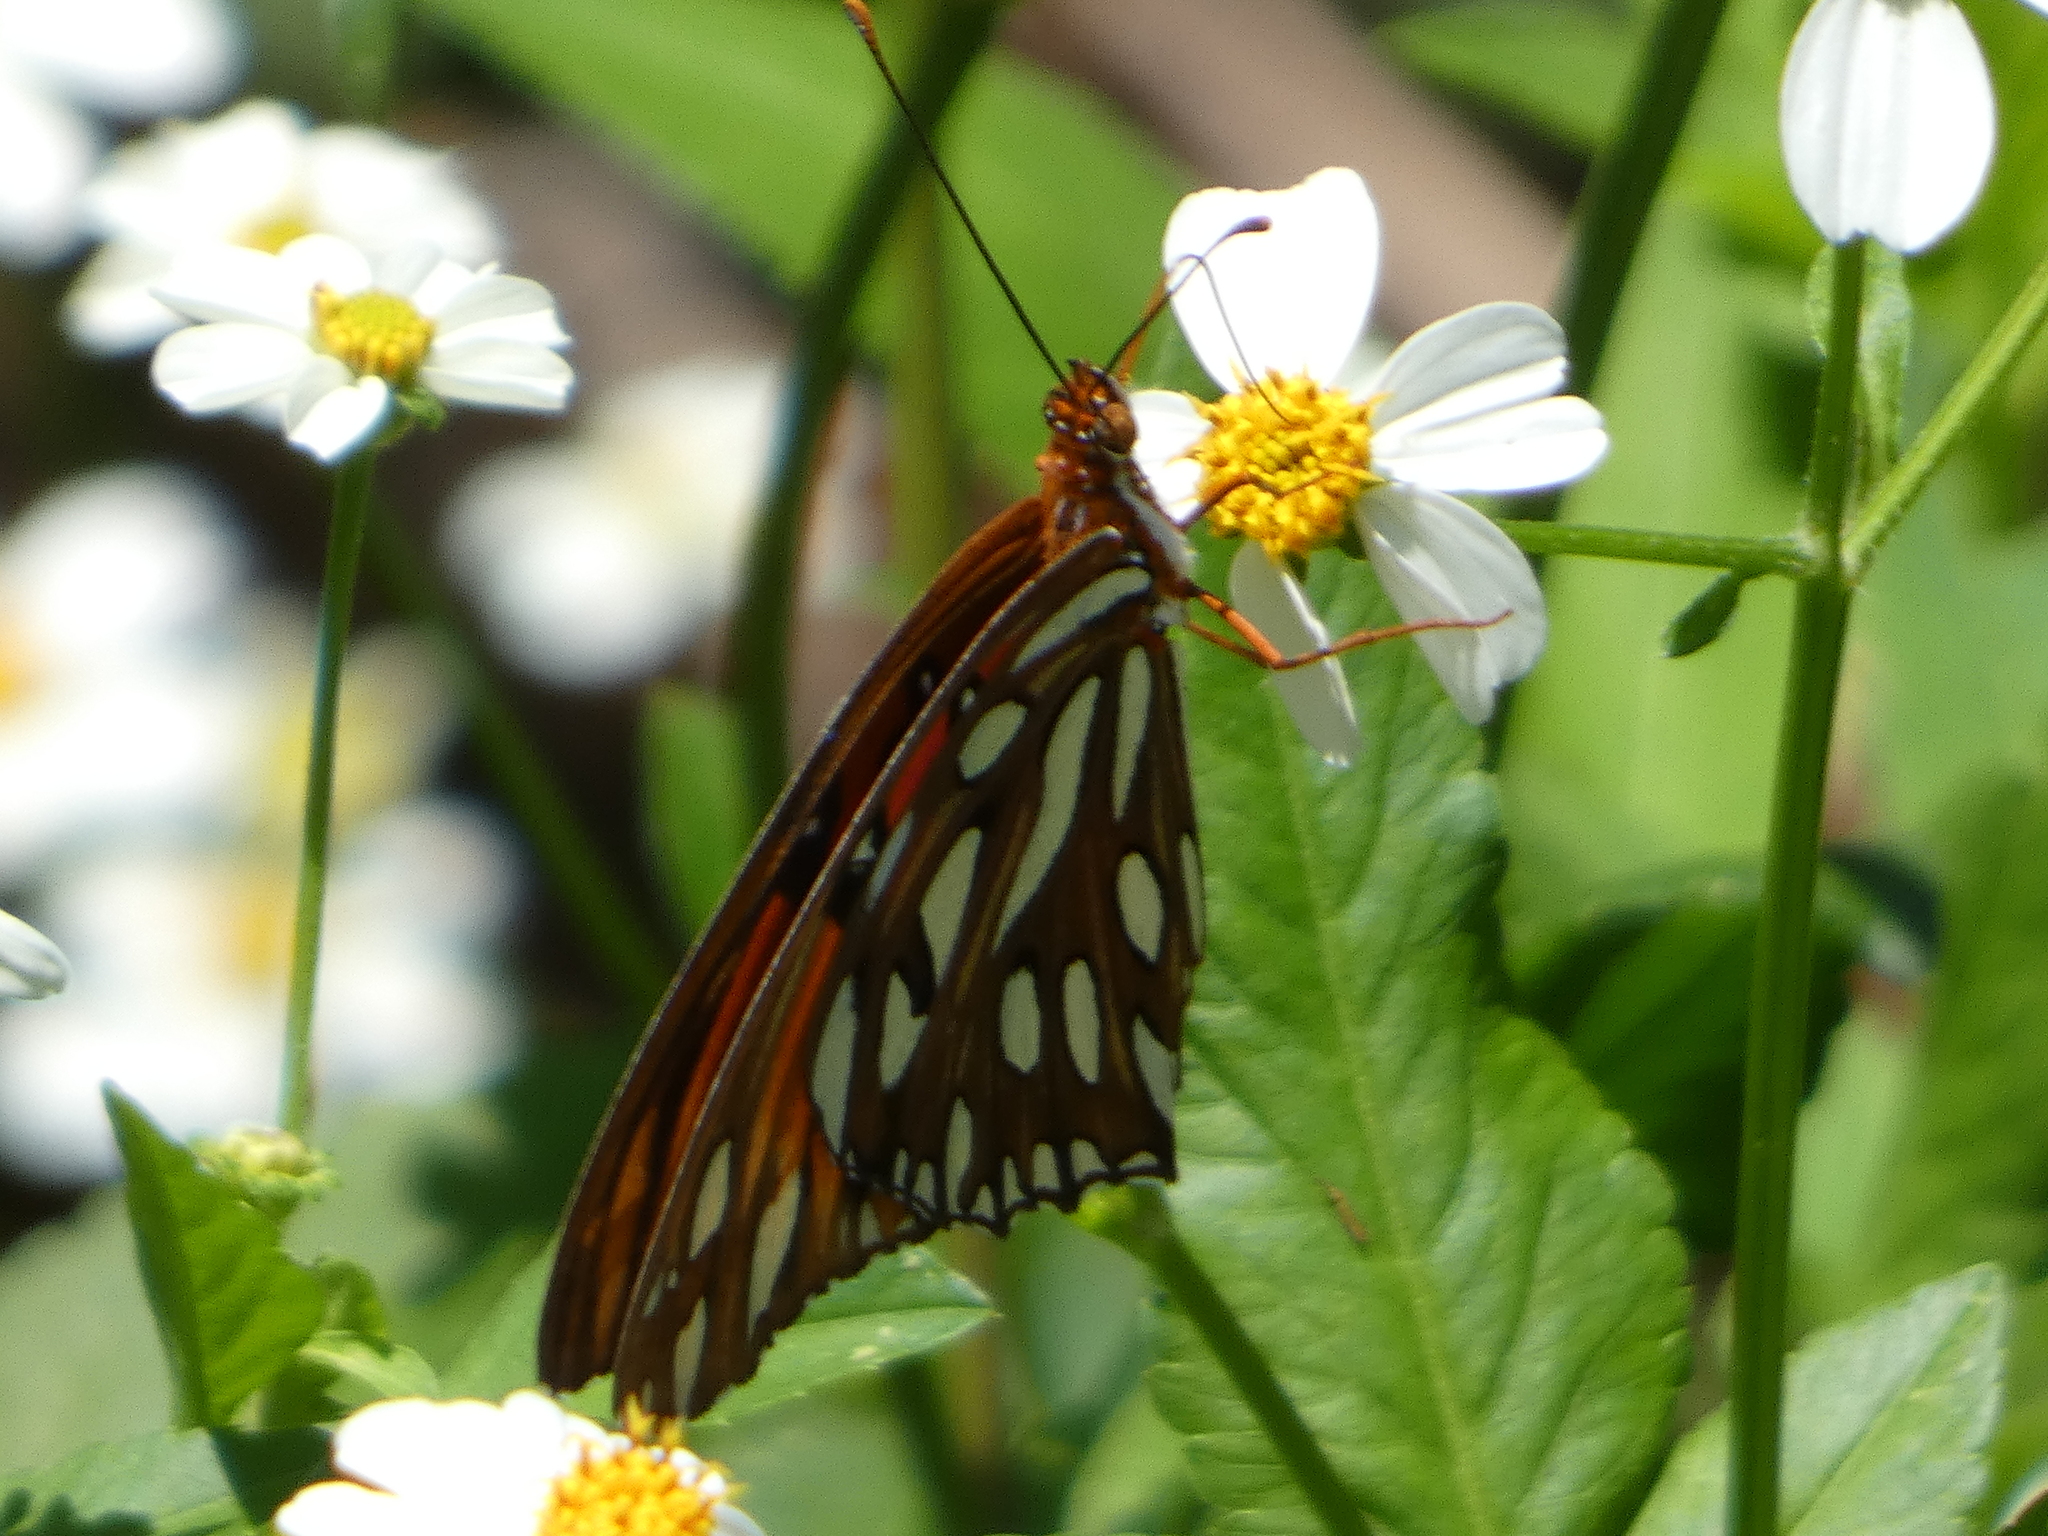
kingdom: Animalia
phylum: Arthropoda
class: Insecta
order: Lepidoptera
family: Nymphalidae
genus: Dione
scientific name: Dione vanillae
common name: Gulf fritillary
